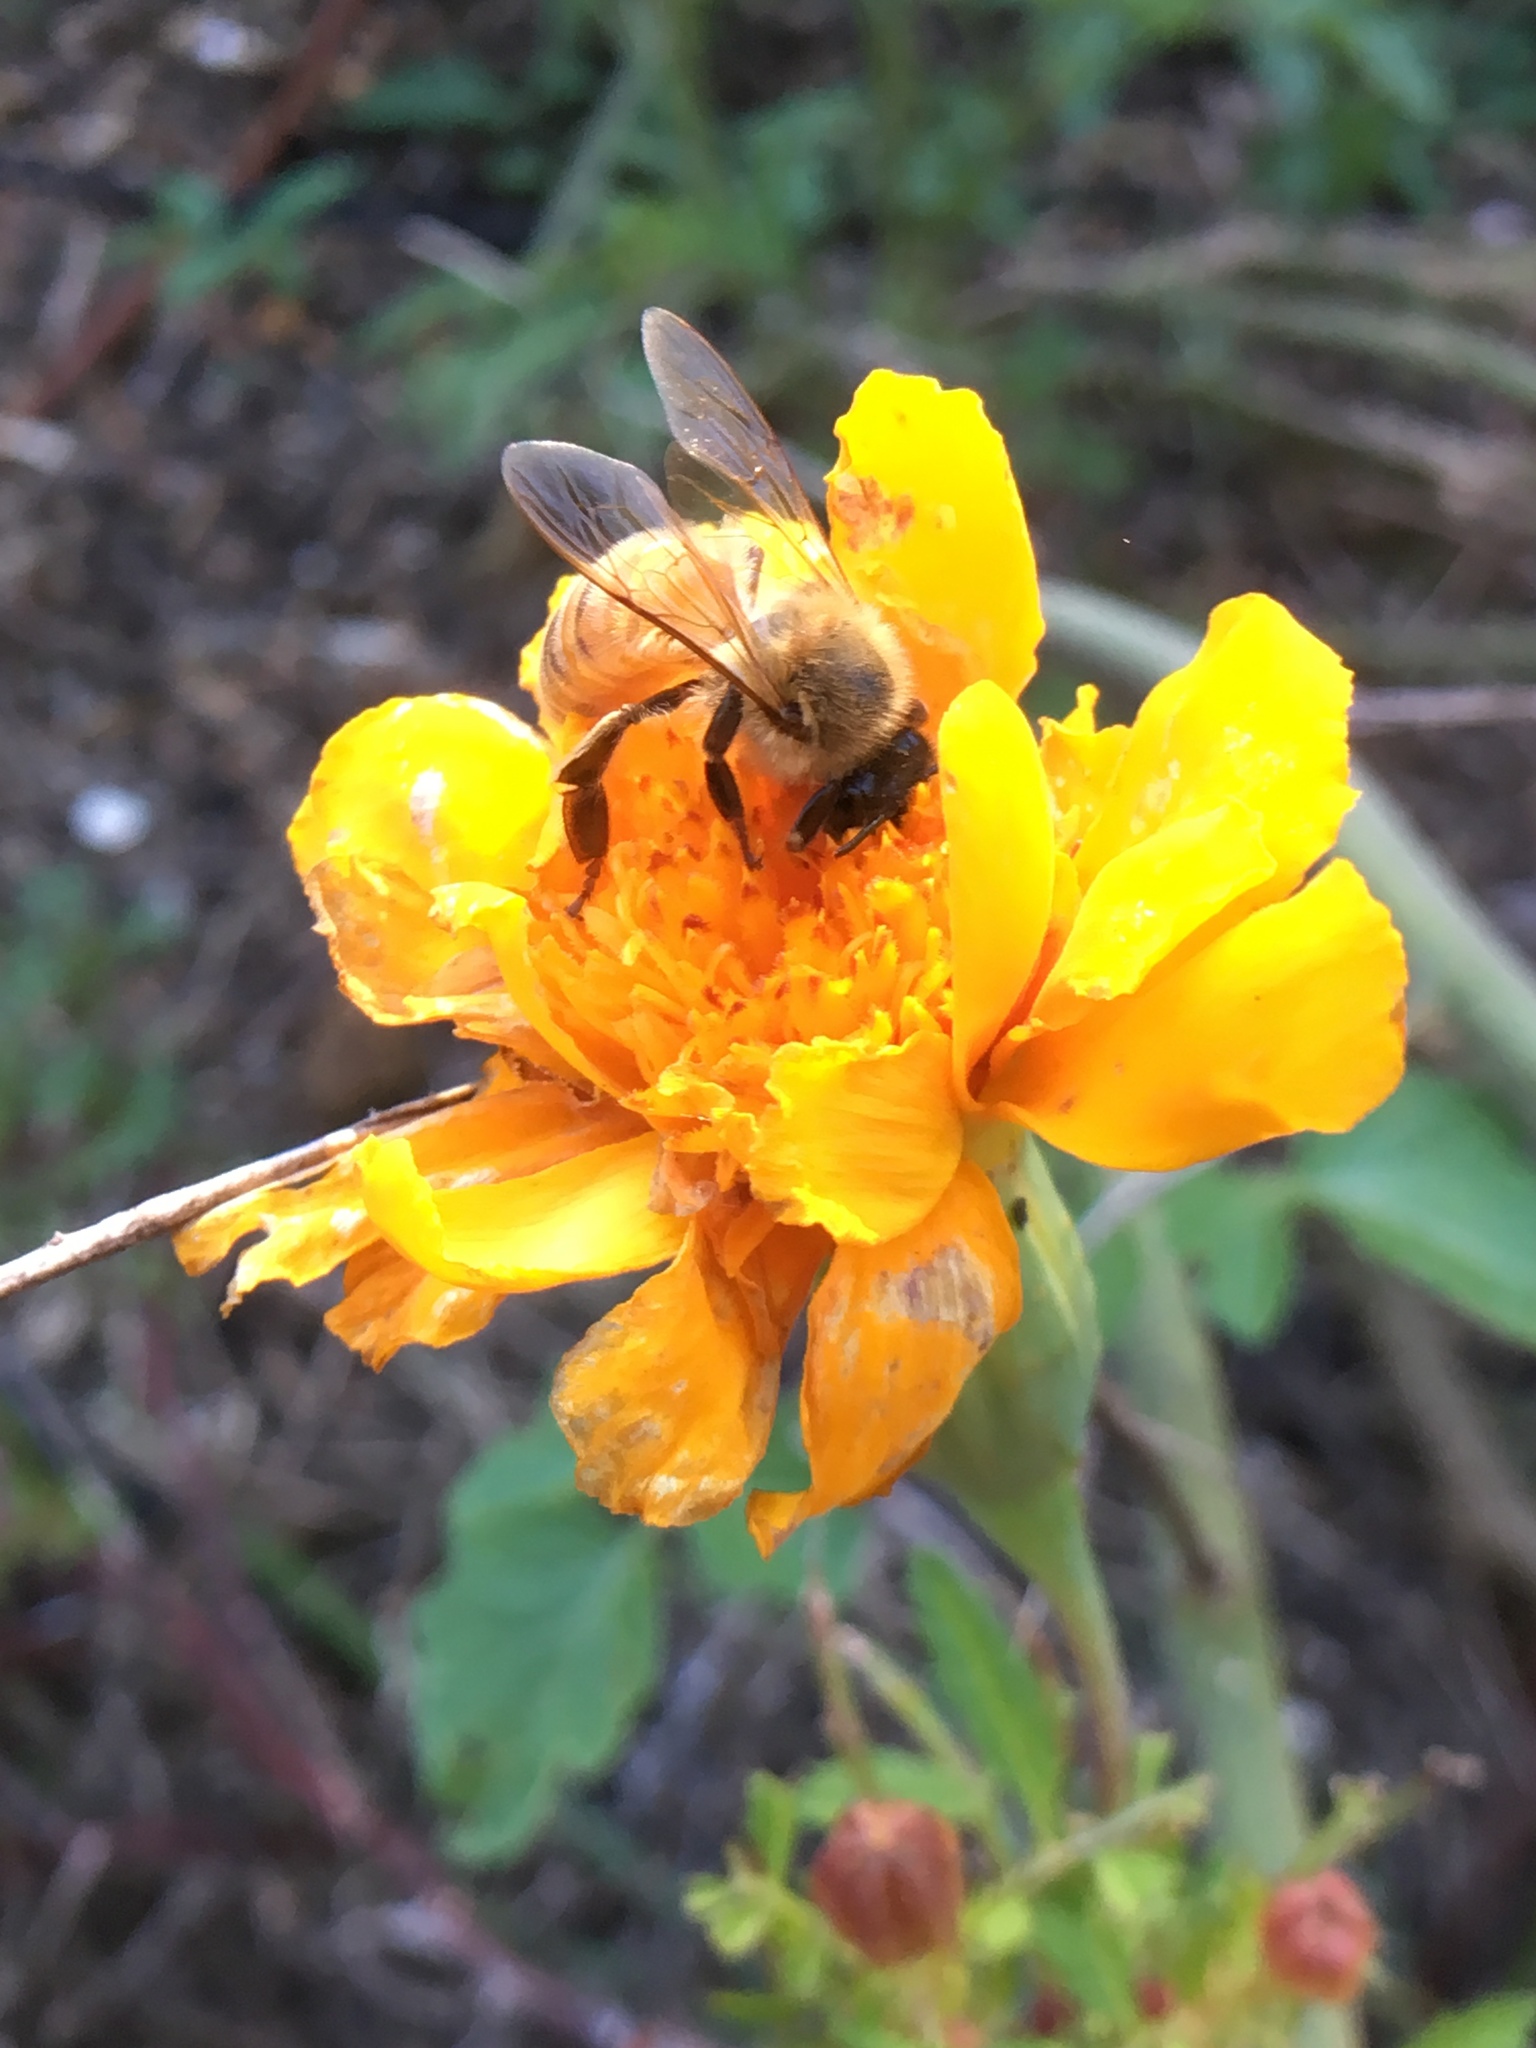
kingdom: Animalia
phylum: Arthropoda
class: Insecta
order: Hymenoptera
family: Apidae
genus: Apis
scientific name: Apis mellifera
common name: Honey bee
